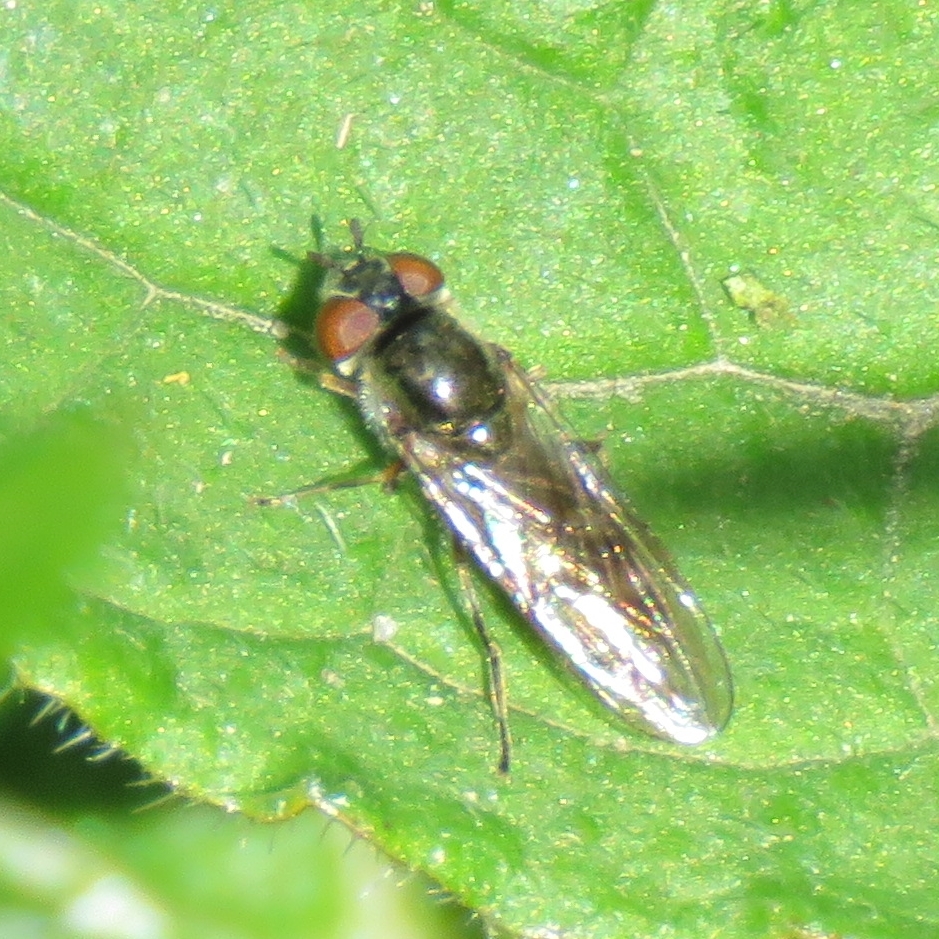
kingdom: Animalia
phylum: Arthropoda
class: Insecta
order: Diptera
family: Syrphidae
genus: Platycheirus
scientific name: Platycheirus albimanus
